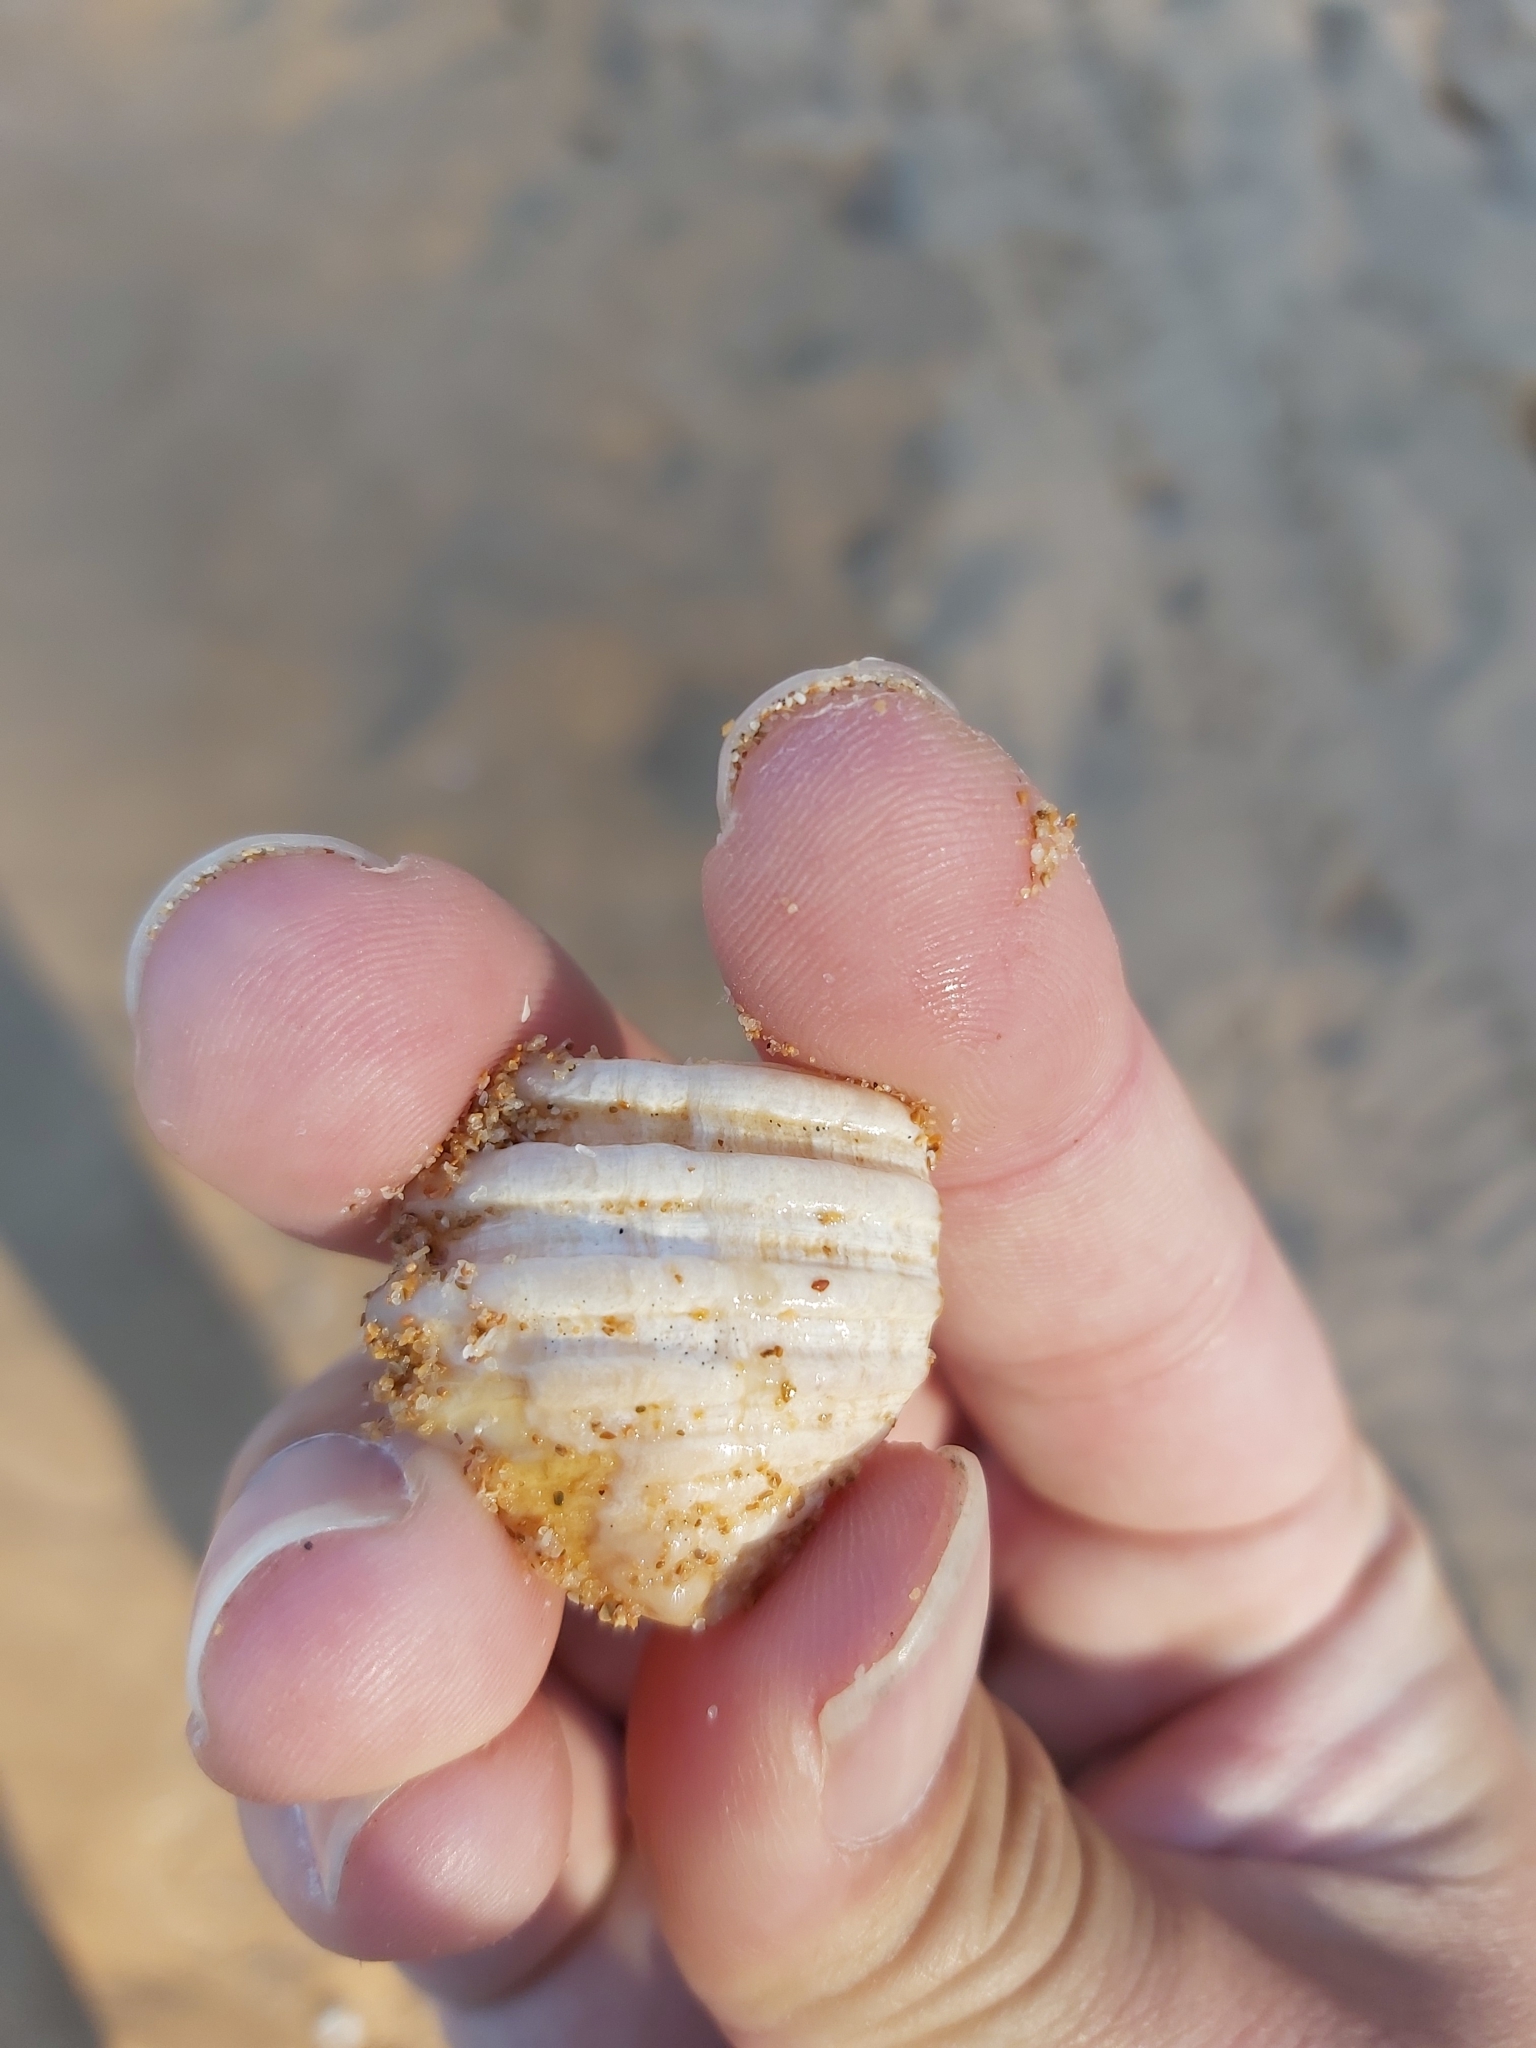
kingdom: Animalia
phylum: Mollusca
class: Gastropoda
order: Neogastropoda
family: Muricidae
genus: Dicathais
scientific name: Dicathais orbita
